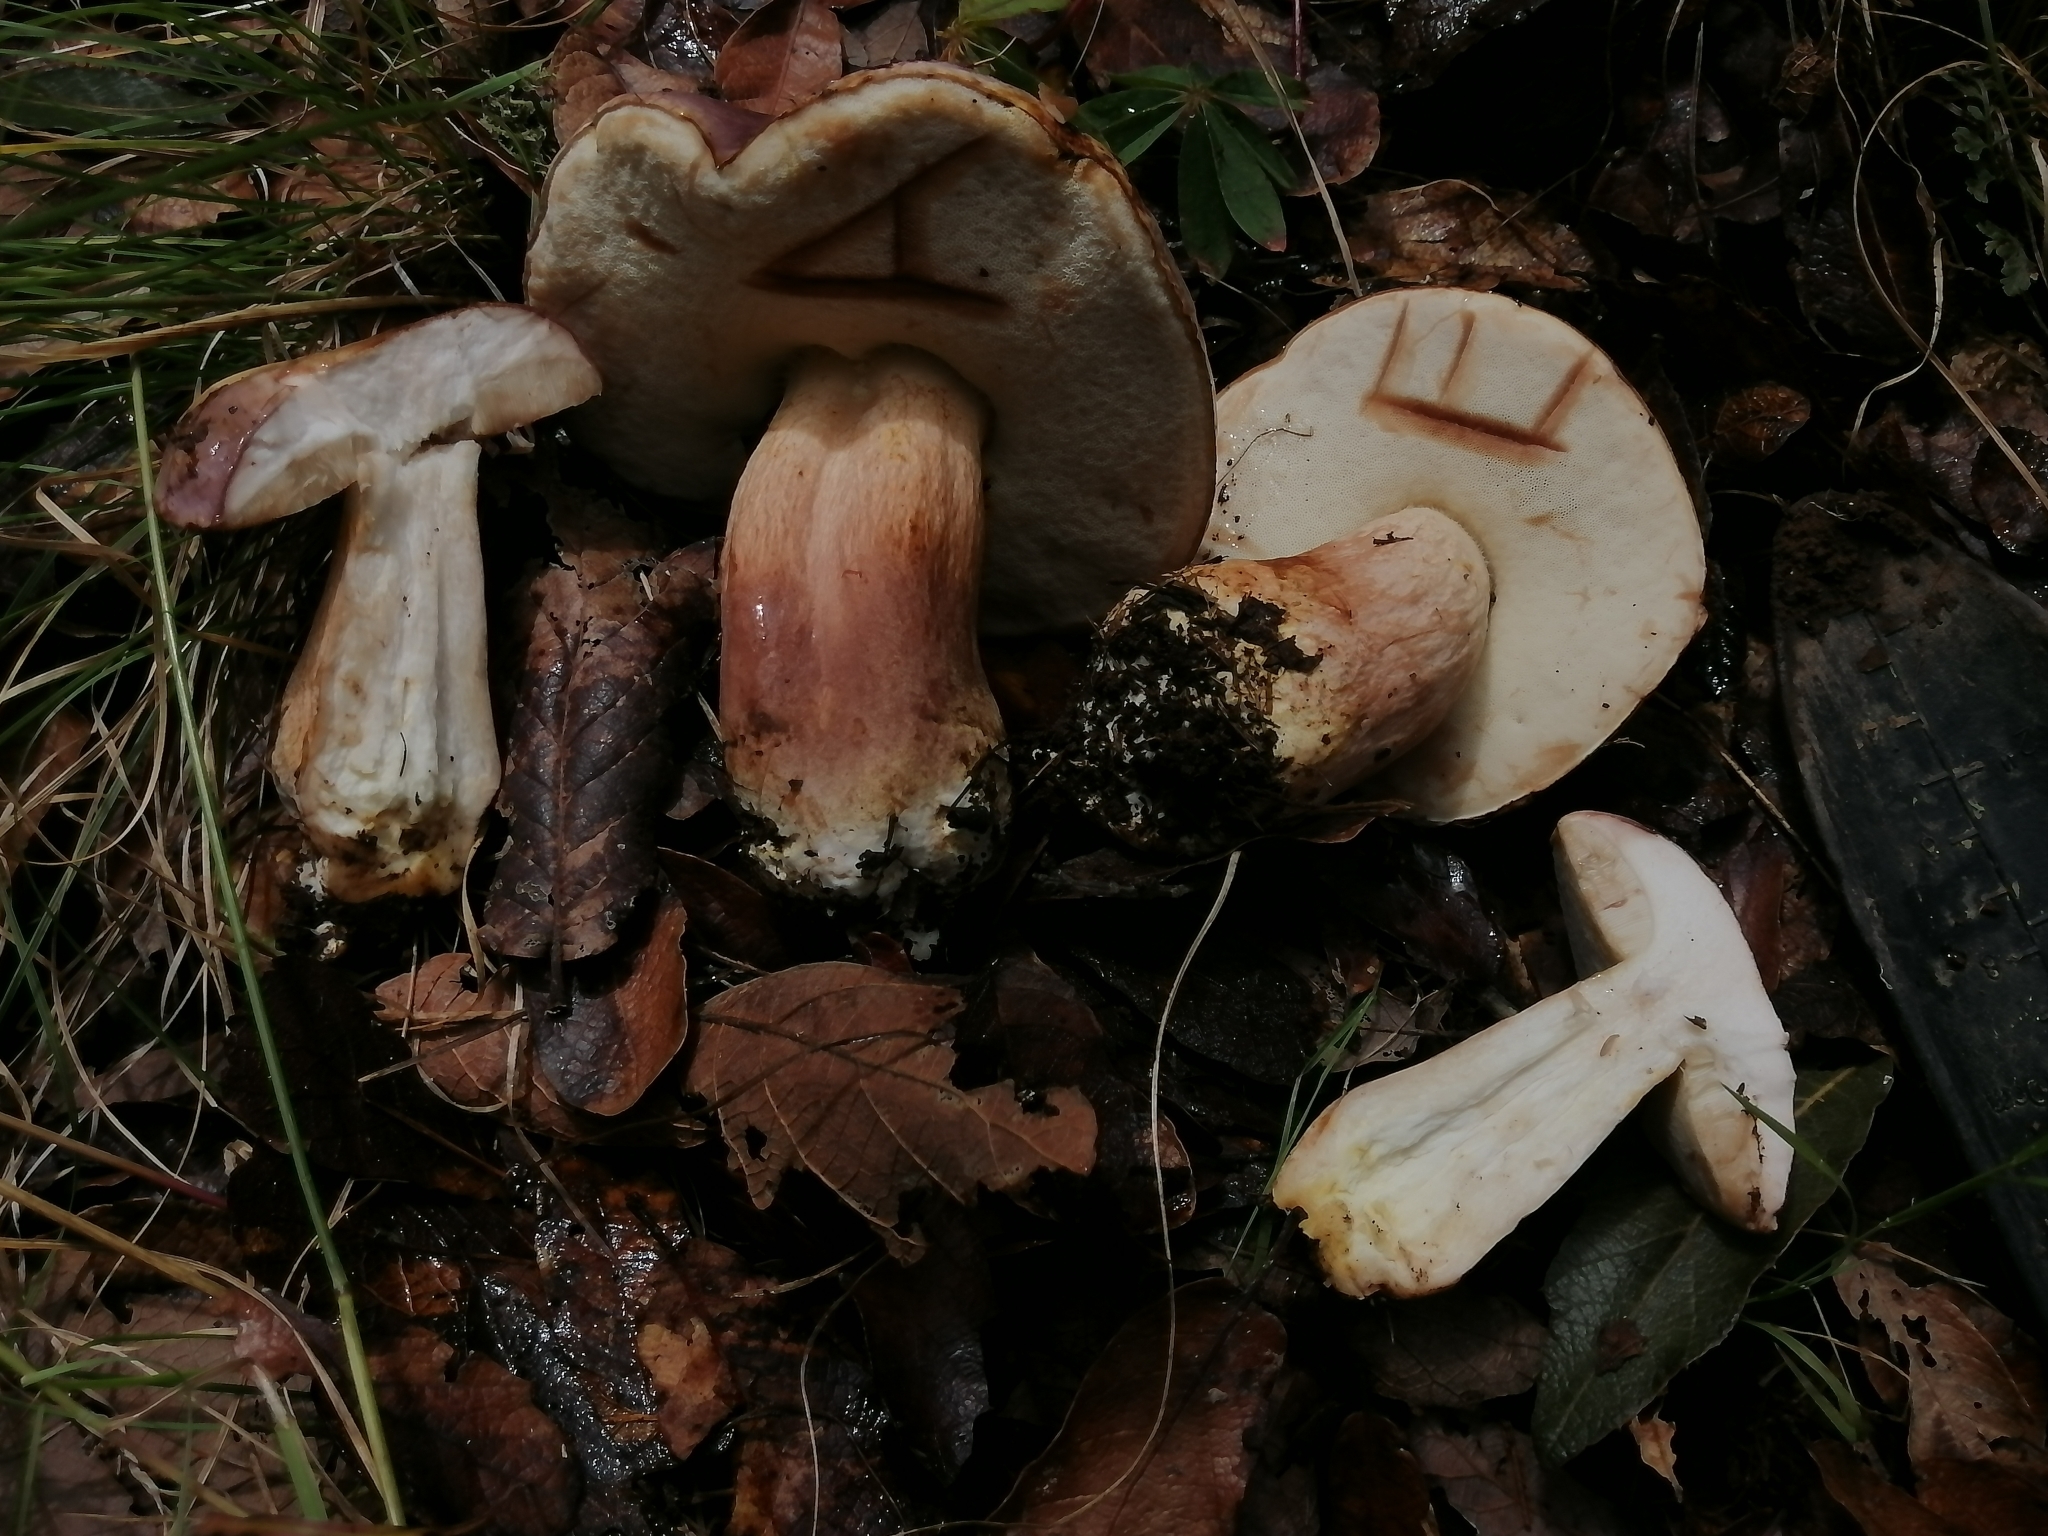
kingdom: Fungi
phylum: Basidiomycota
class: Agaricomycetes
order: Boletales
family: Boletaceae
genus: Tylopilus
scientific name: Tylopilus rubrobrunneus
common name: Reddish brown bitter bolete
